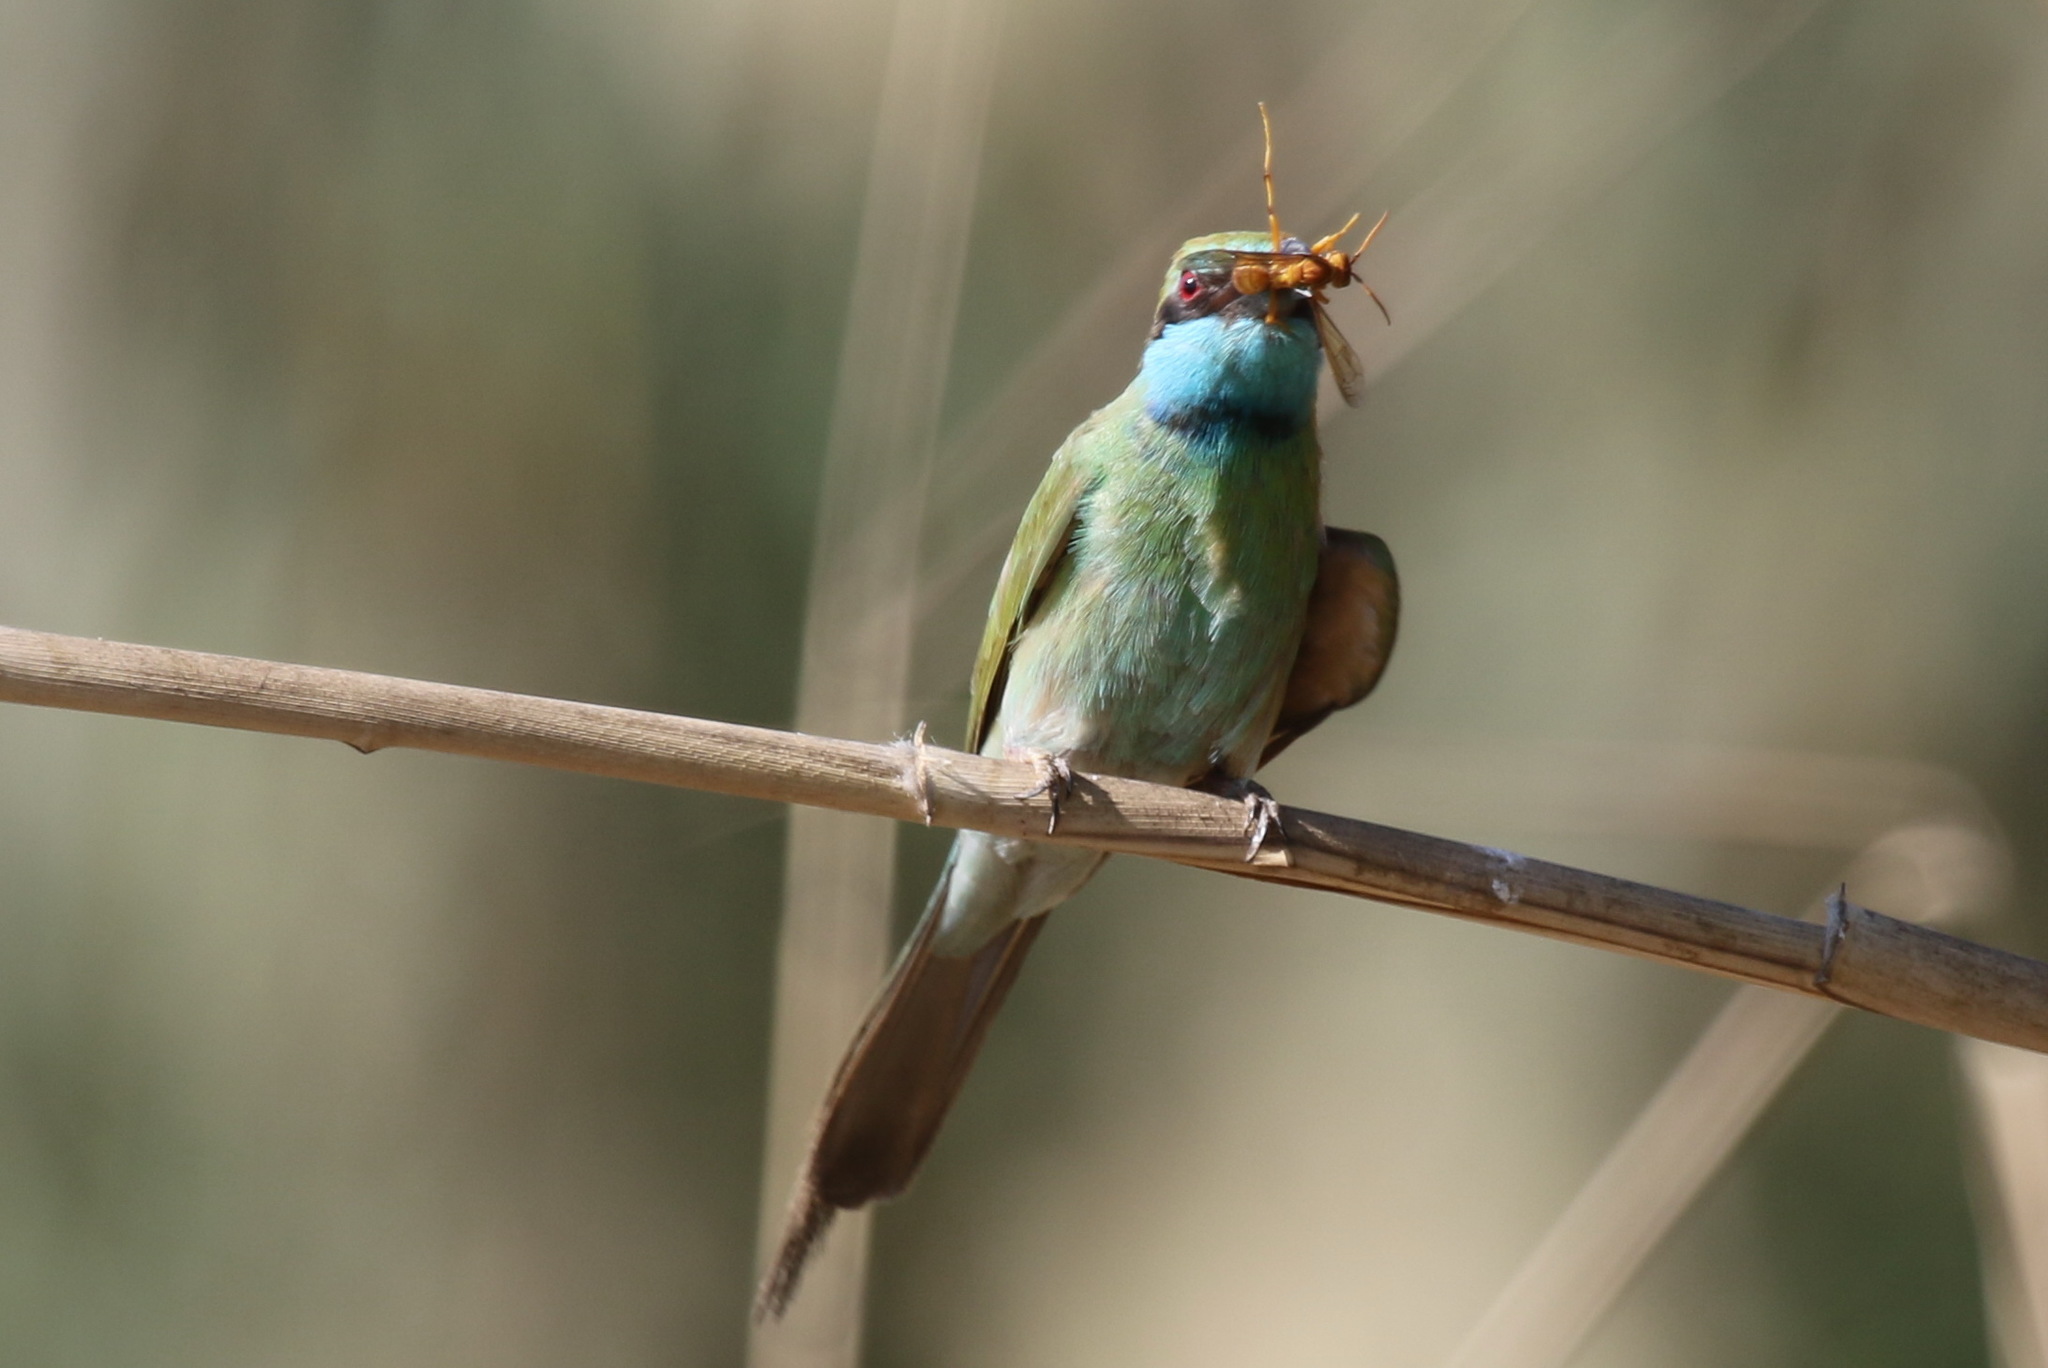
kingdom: Animalia
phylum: Chordata
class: Aves
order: Coraciiformes
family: Meropidae
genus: Merops
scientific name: Merops cyanophrys
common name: Arabian green bee-eater
